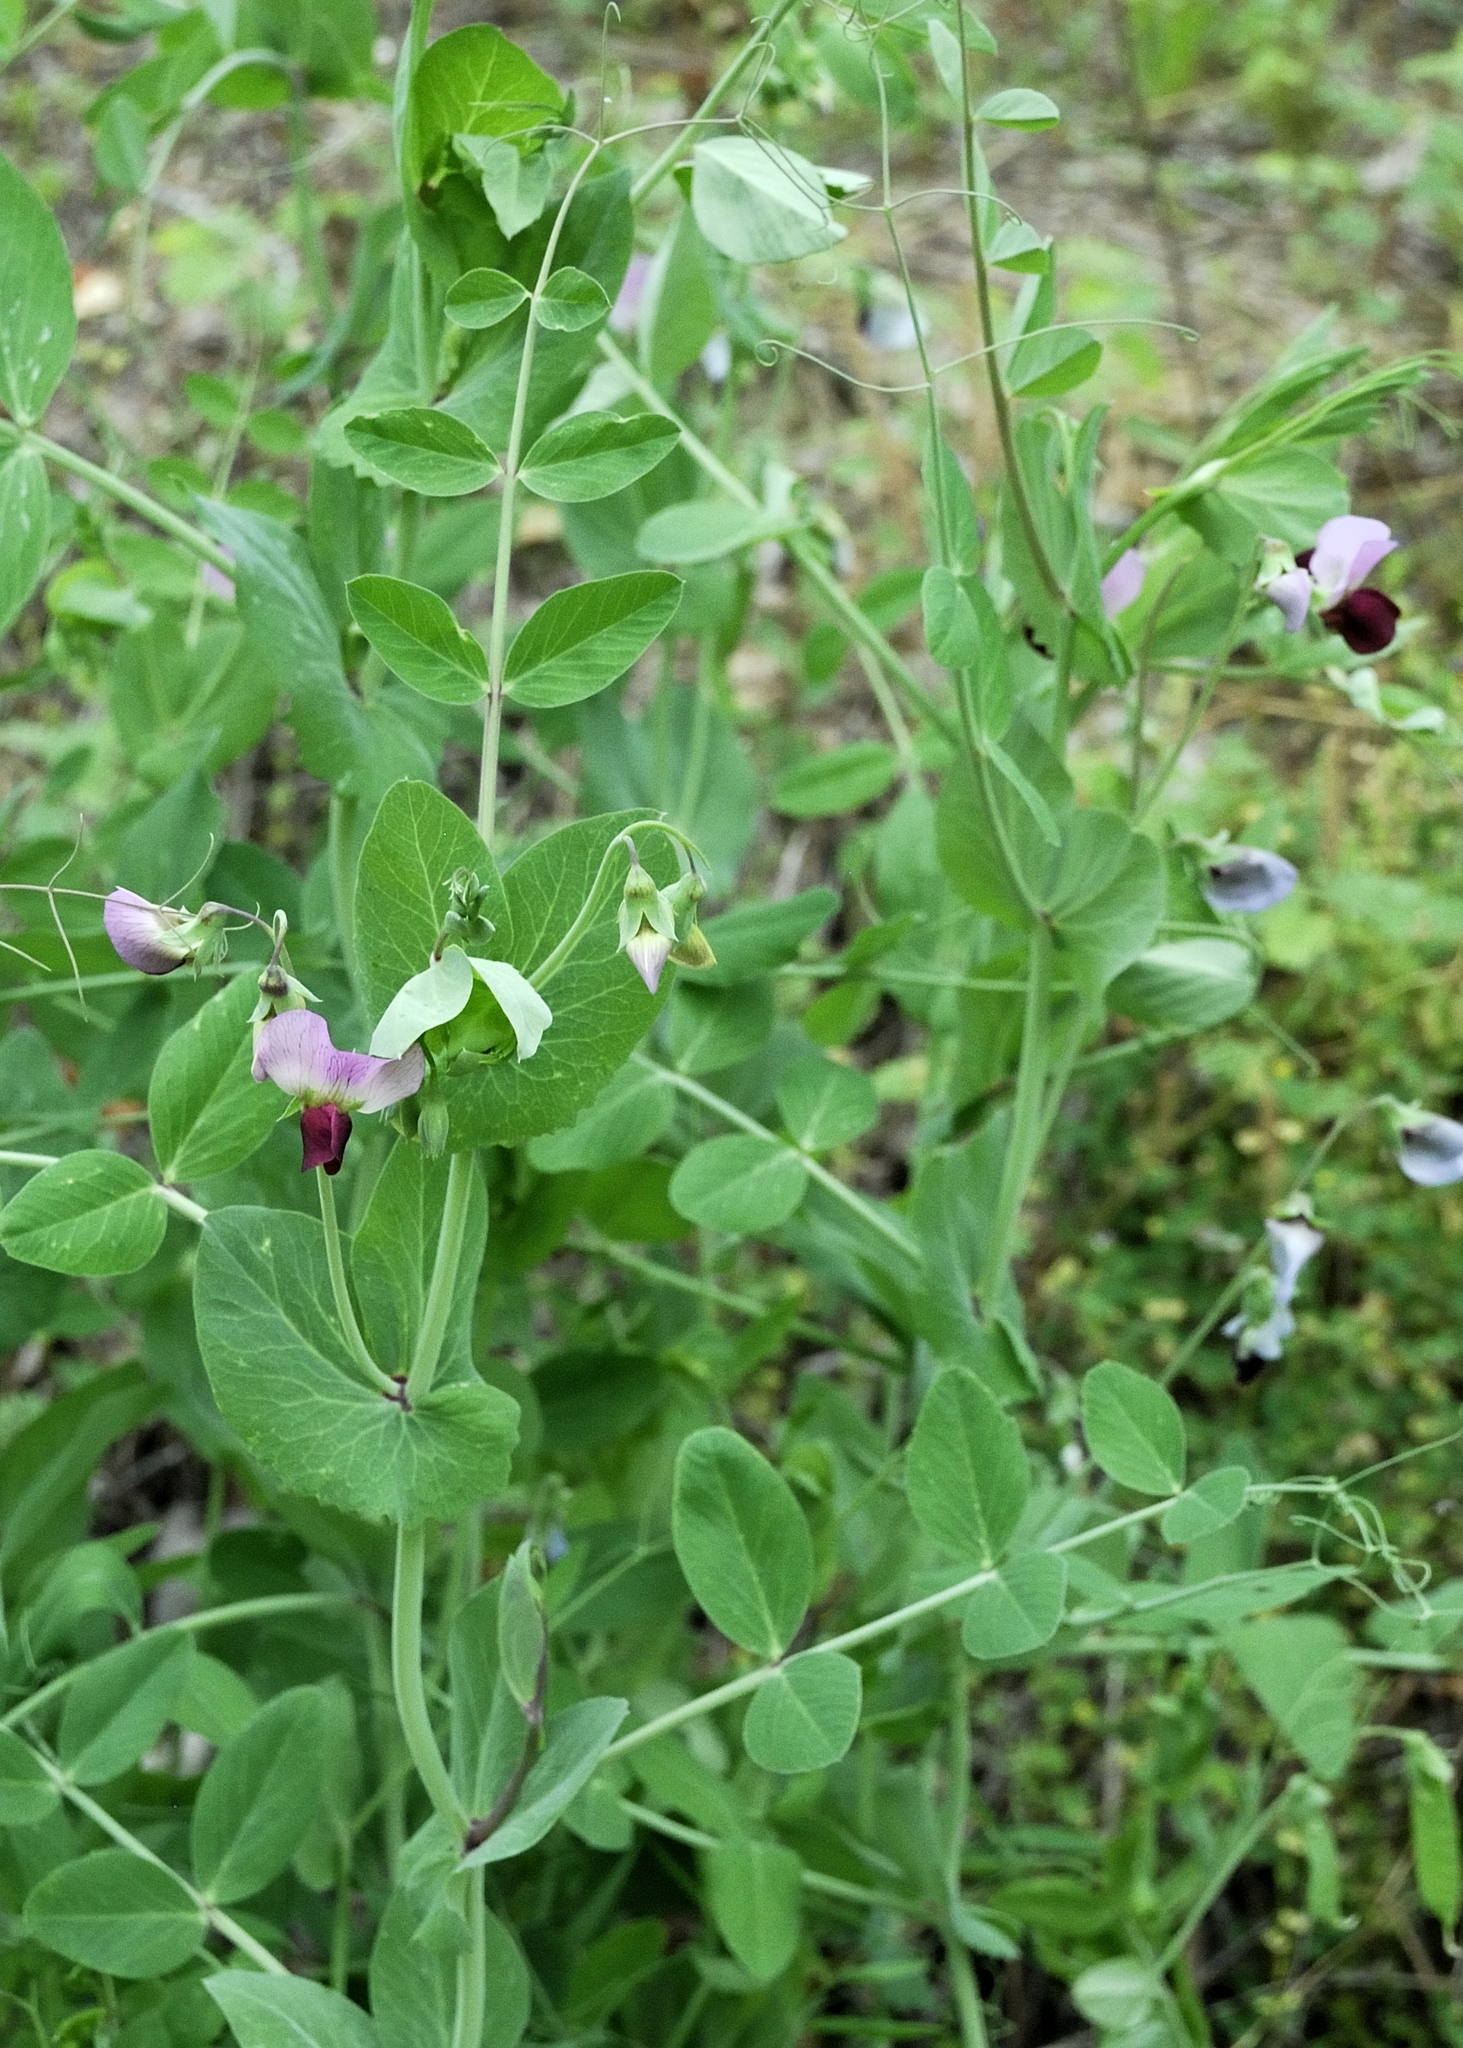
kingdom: Plantae
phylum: Tracheophyta
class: Magnoliopsida
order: Fabales
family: Fabaceae
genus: Lathyrus
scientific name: Lathyrus oleraceus
